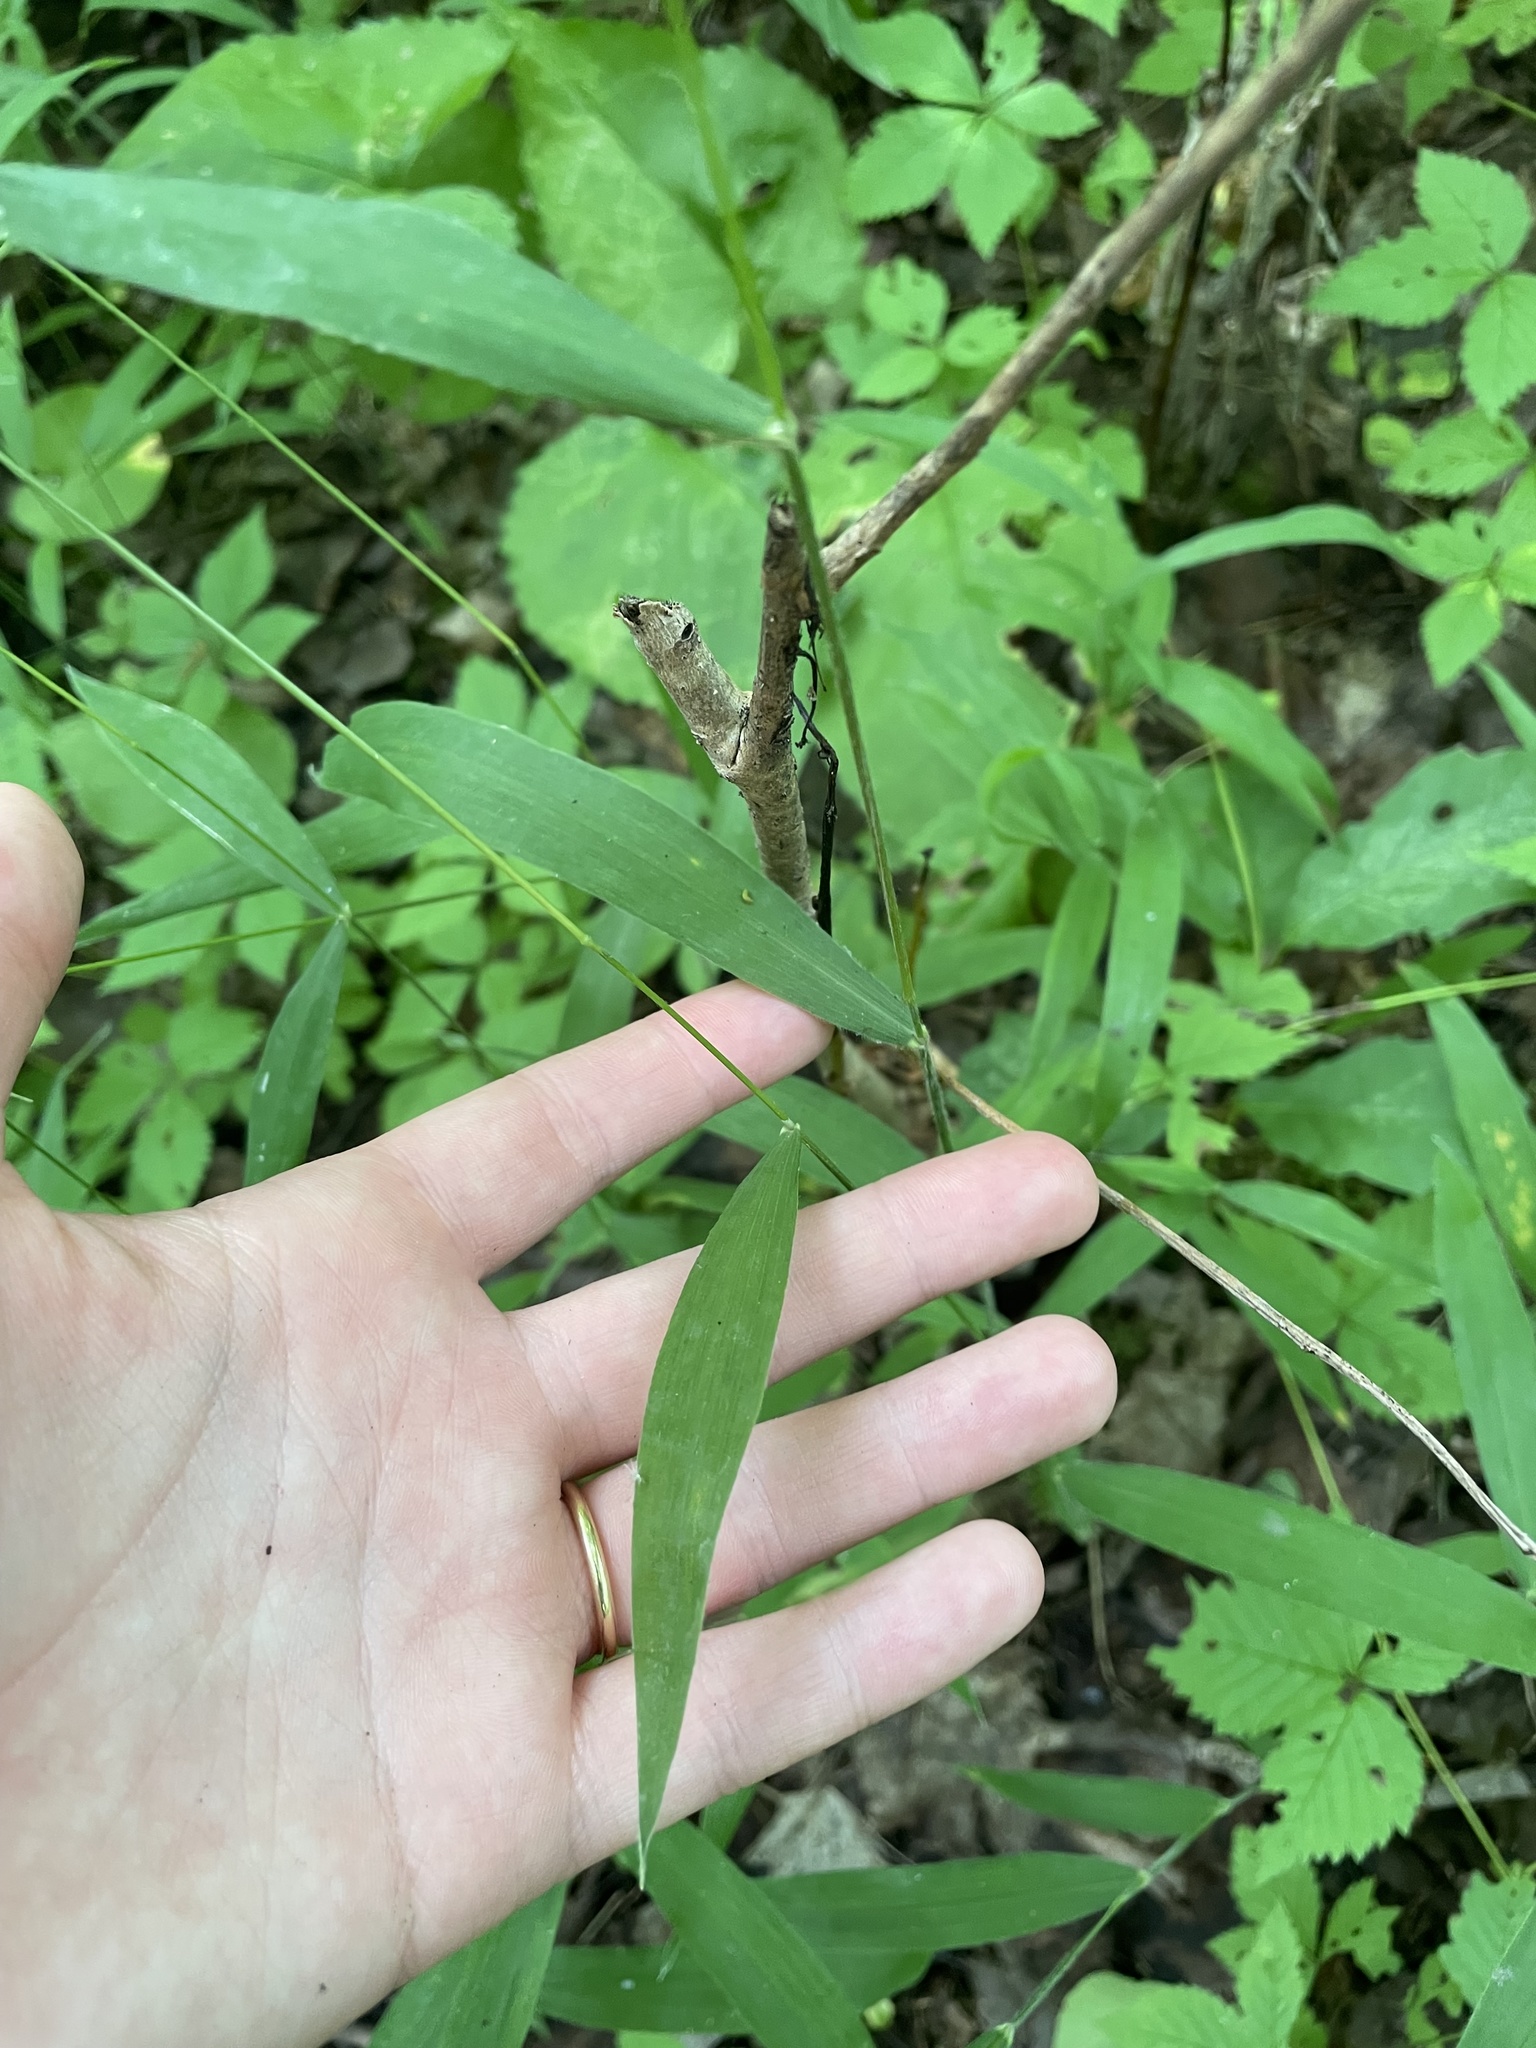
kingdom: Plantae
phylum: Tracheophyta
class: Liliopsida
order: Poales
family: Poaceae
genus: Brachyelytrum
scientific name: Brachyelytrum aristosum
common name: Northern shorthusk
